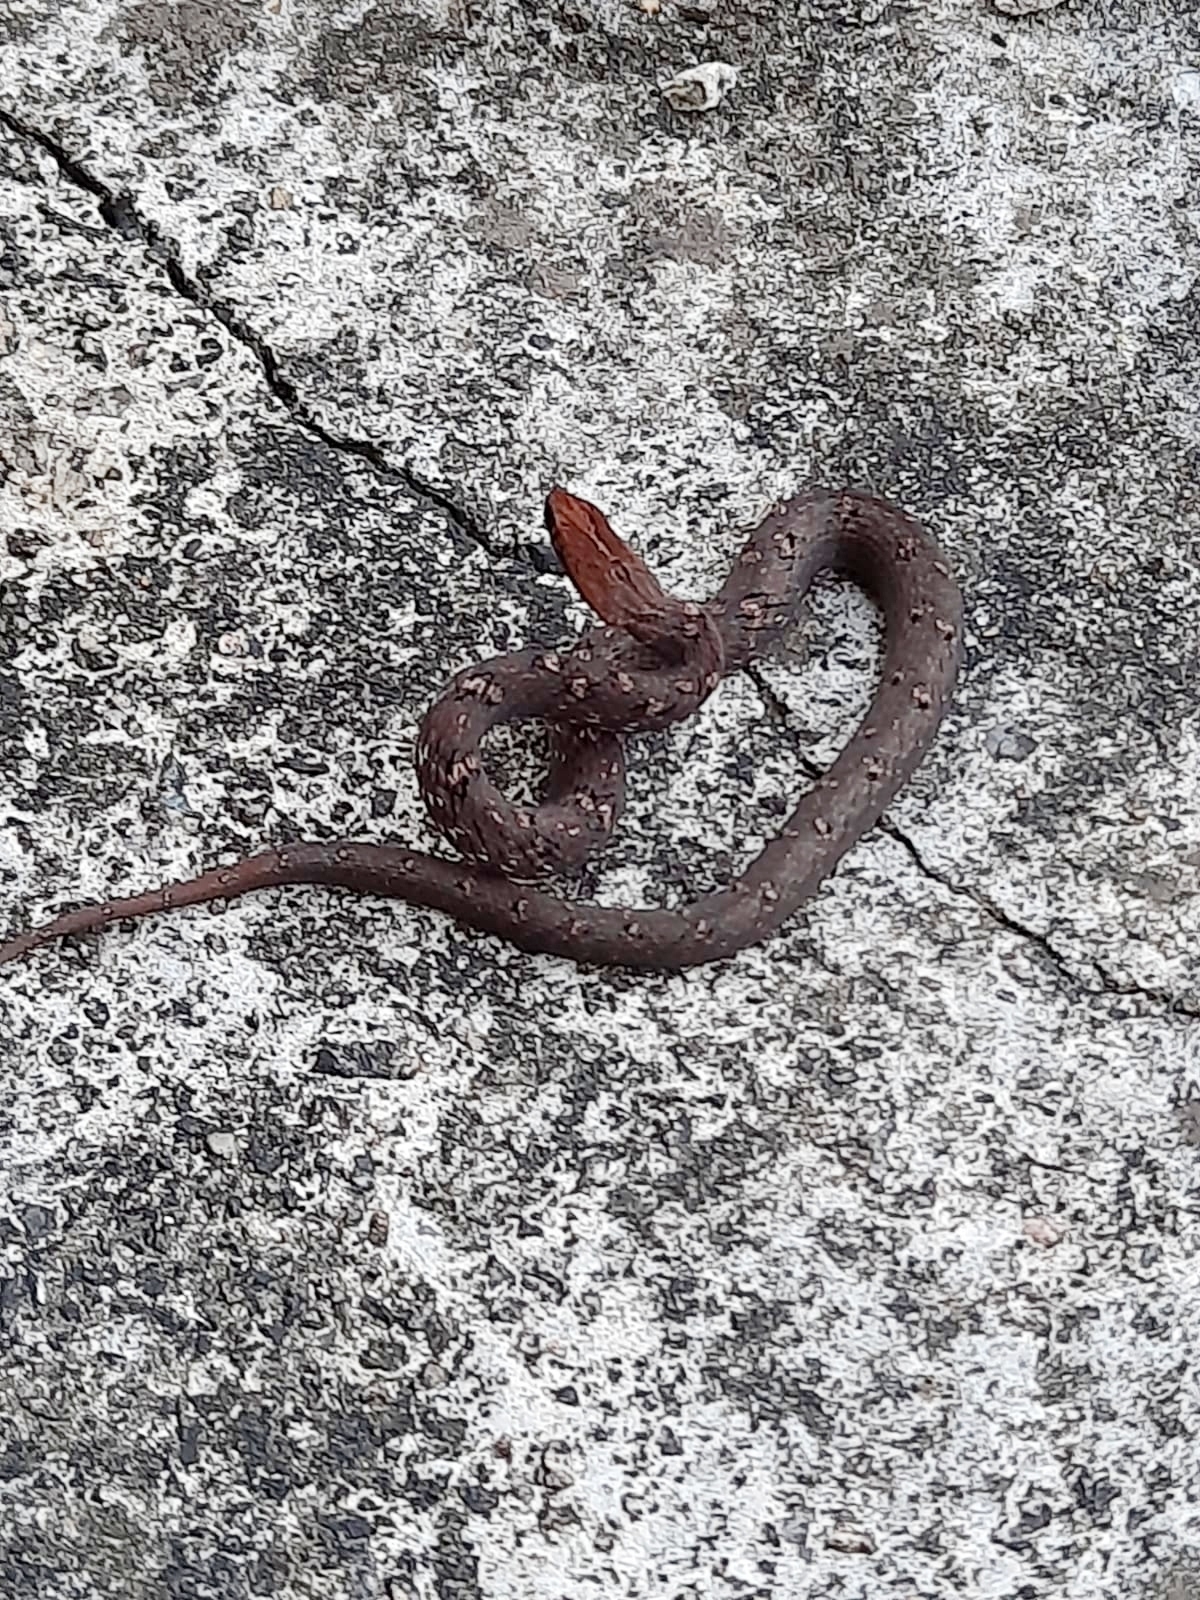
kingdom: Animalia
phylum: Chordata
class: Squamata
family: Pseudaspididae
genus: Psammodynastes
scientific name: Psammodynastes pulverulentus
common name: Common mock viper
